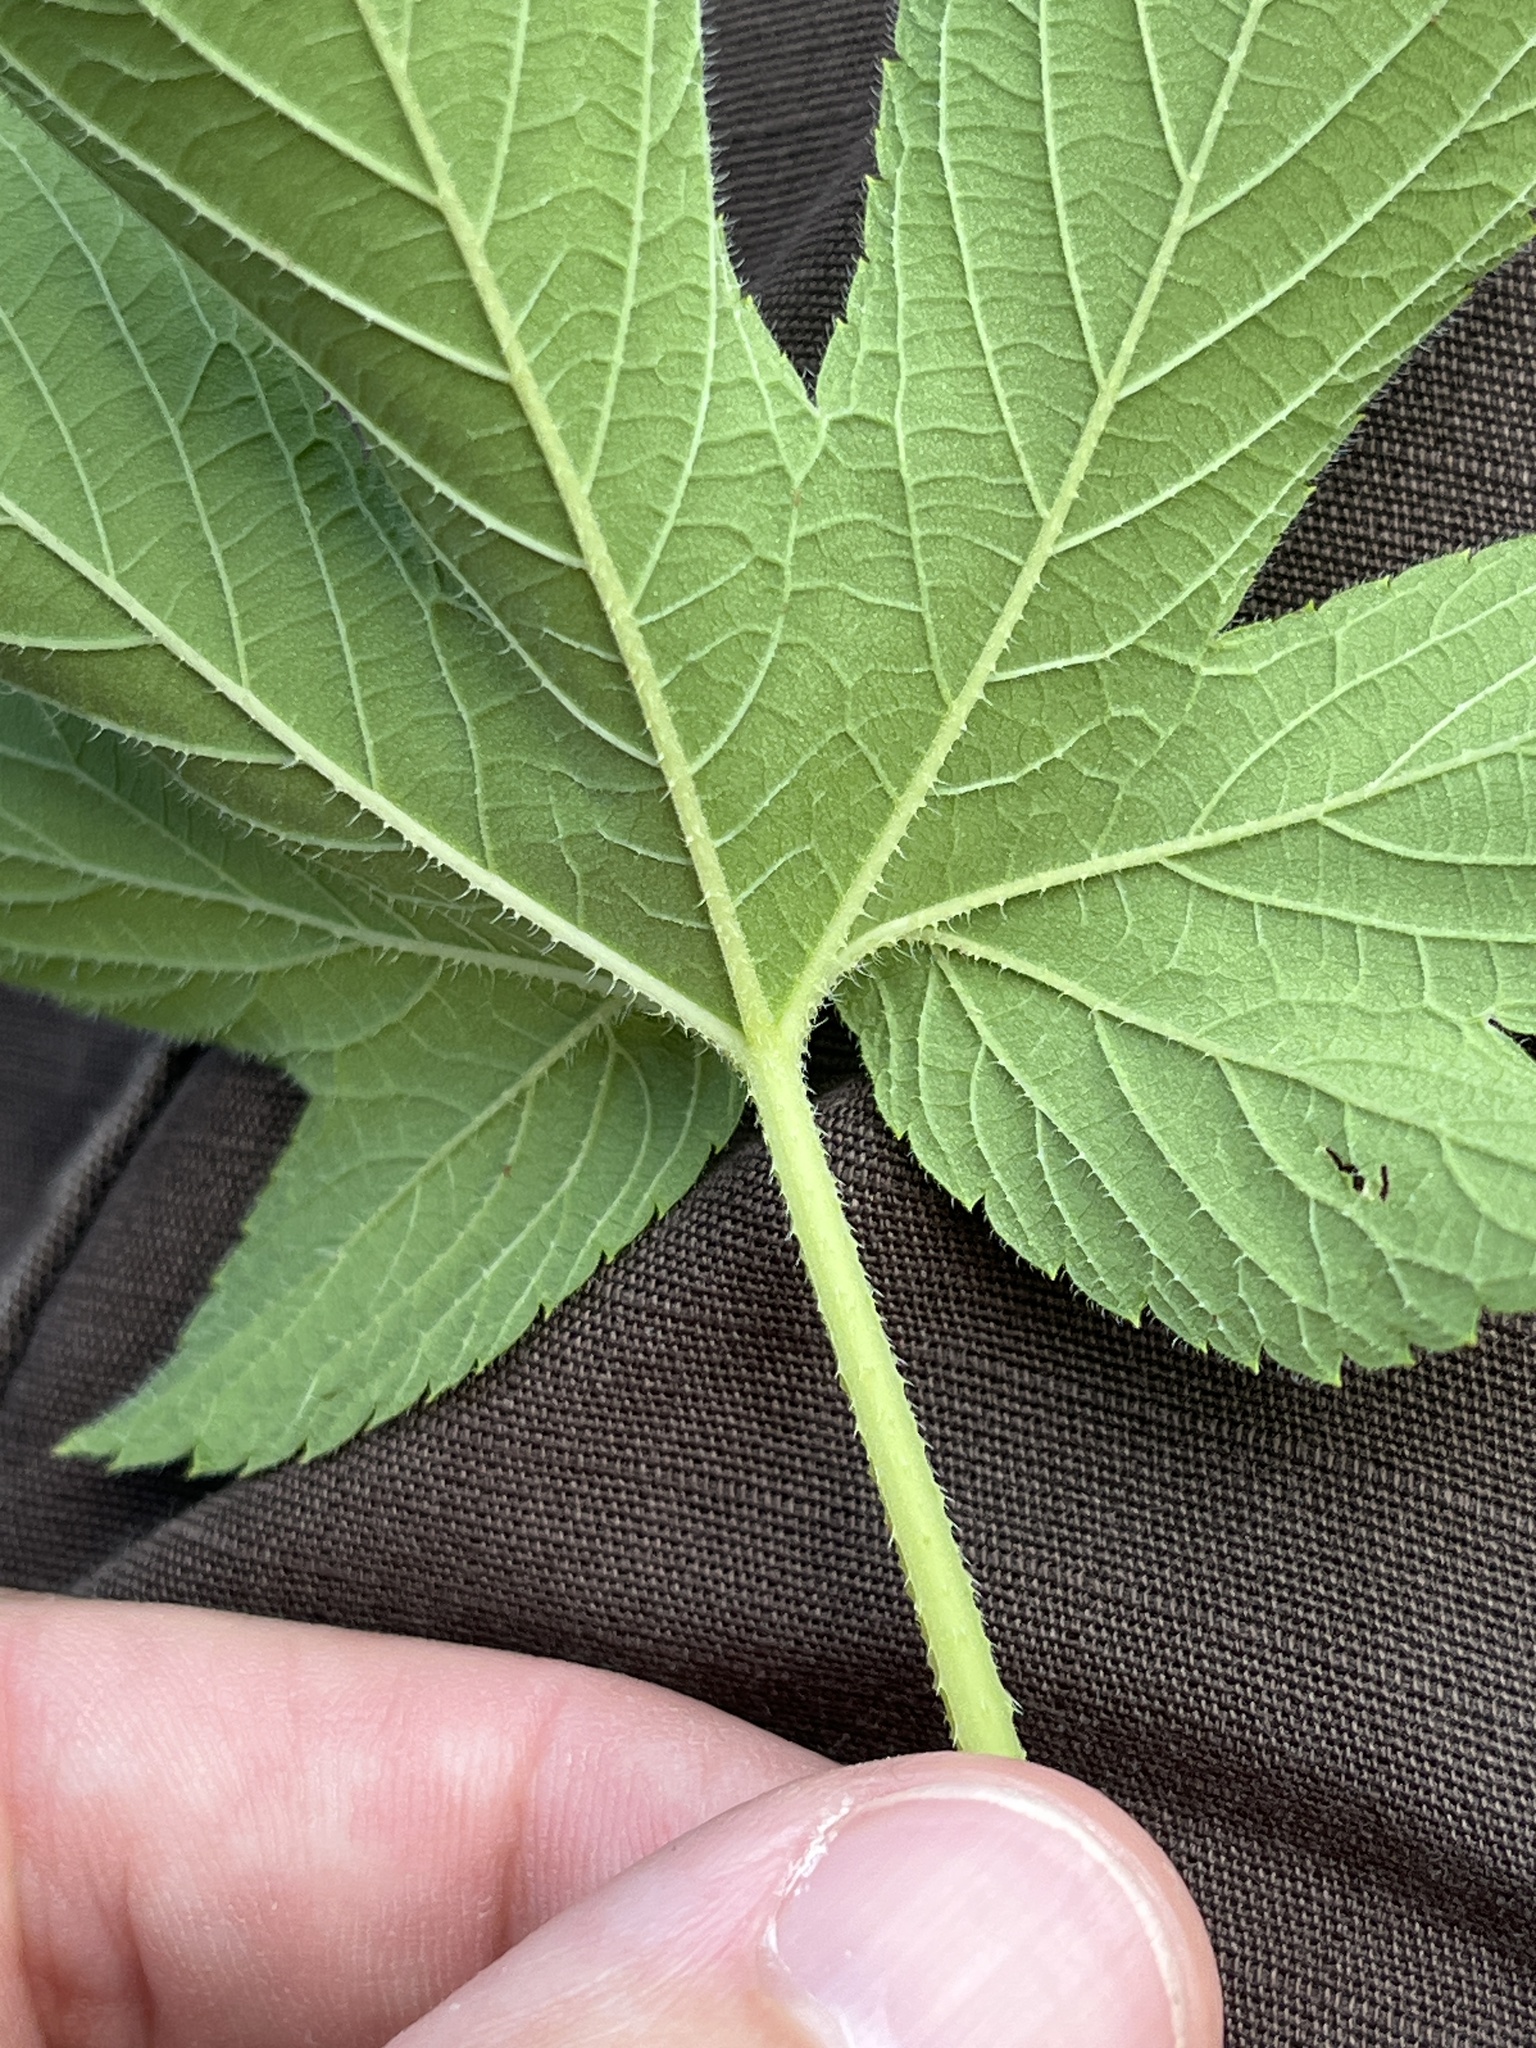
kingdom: Plantae
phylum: Tracheophyta
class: Magnoliopsida
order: Rosales
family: Cannabaceae
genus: Humulus
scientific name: Humulus scandens
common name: Japanese hop
